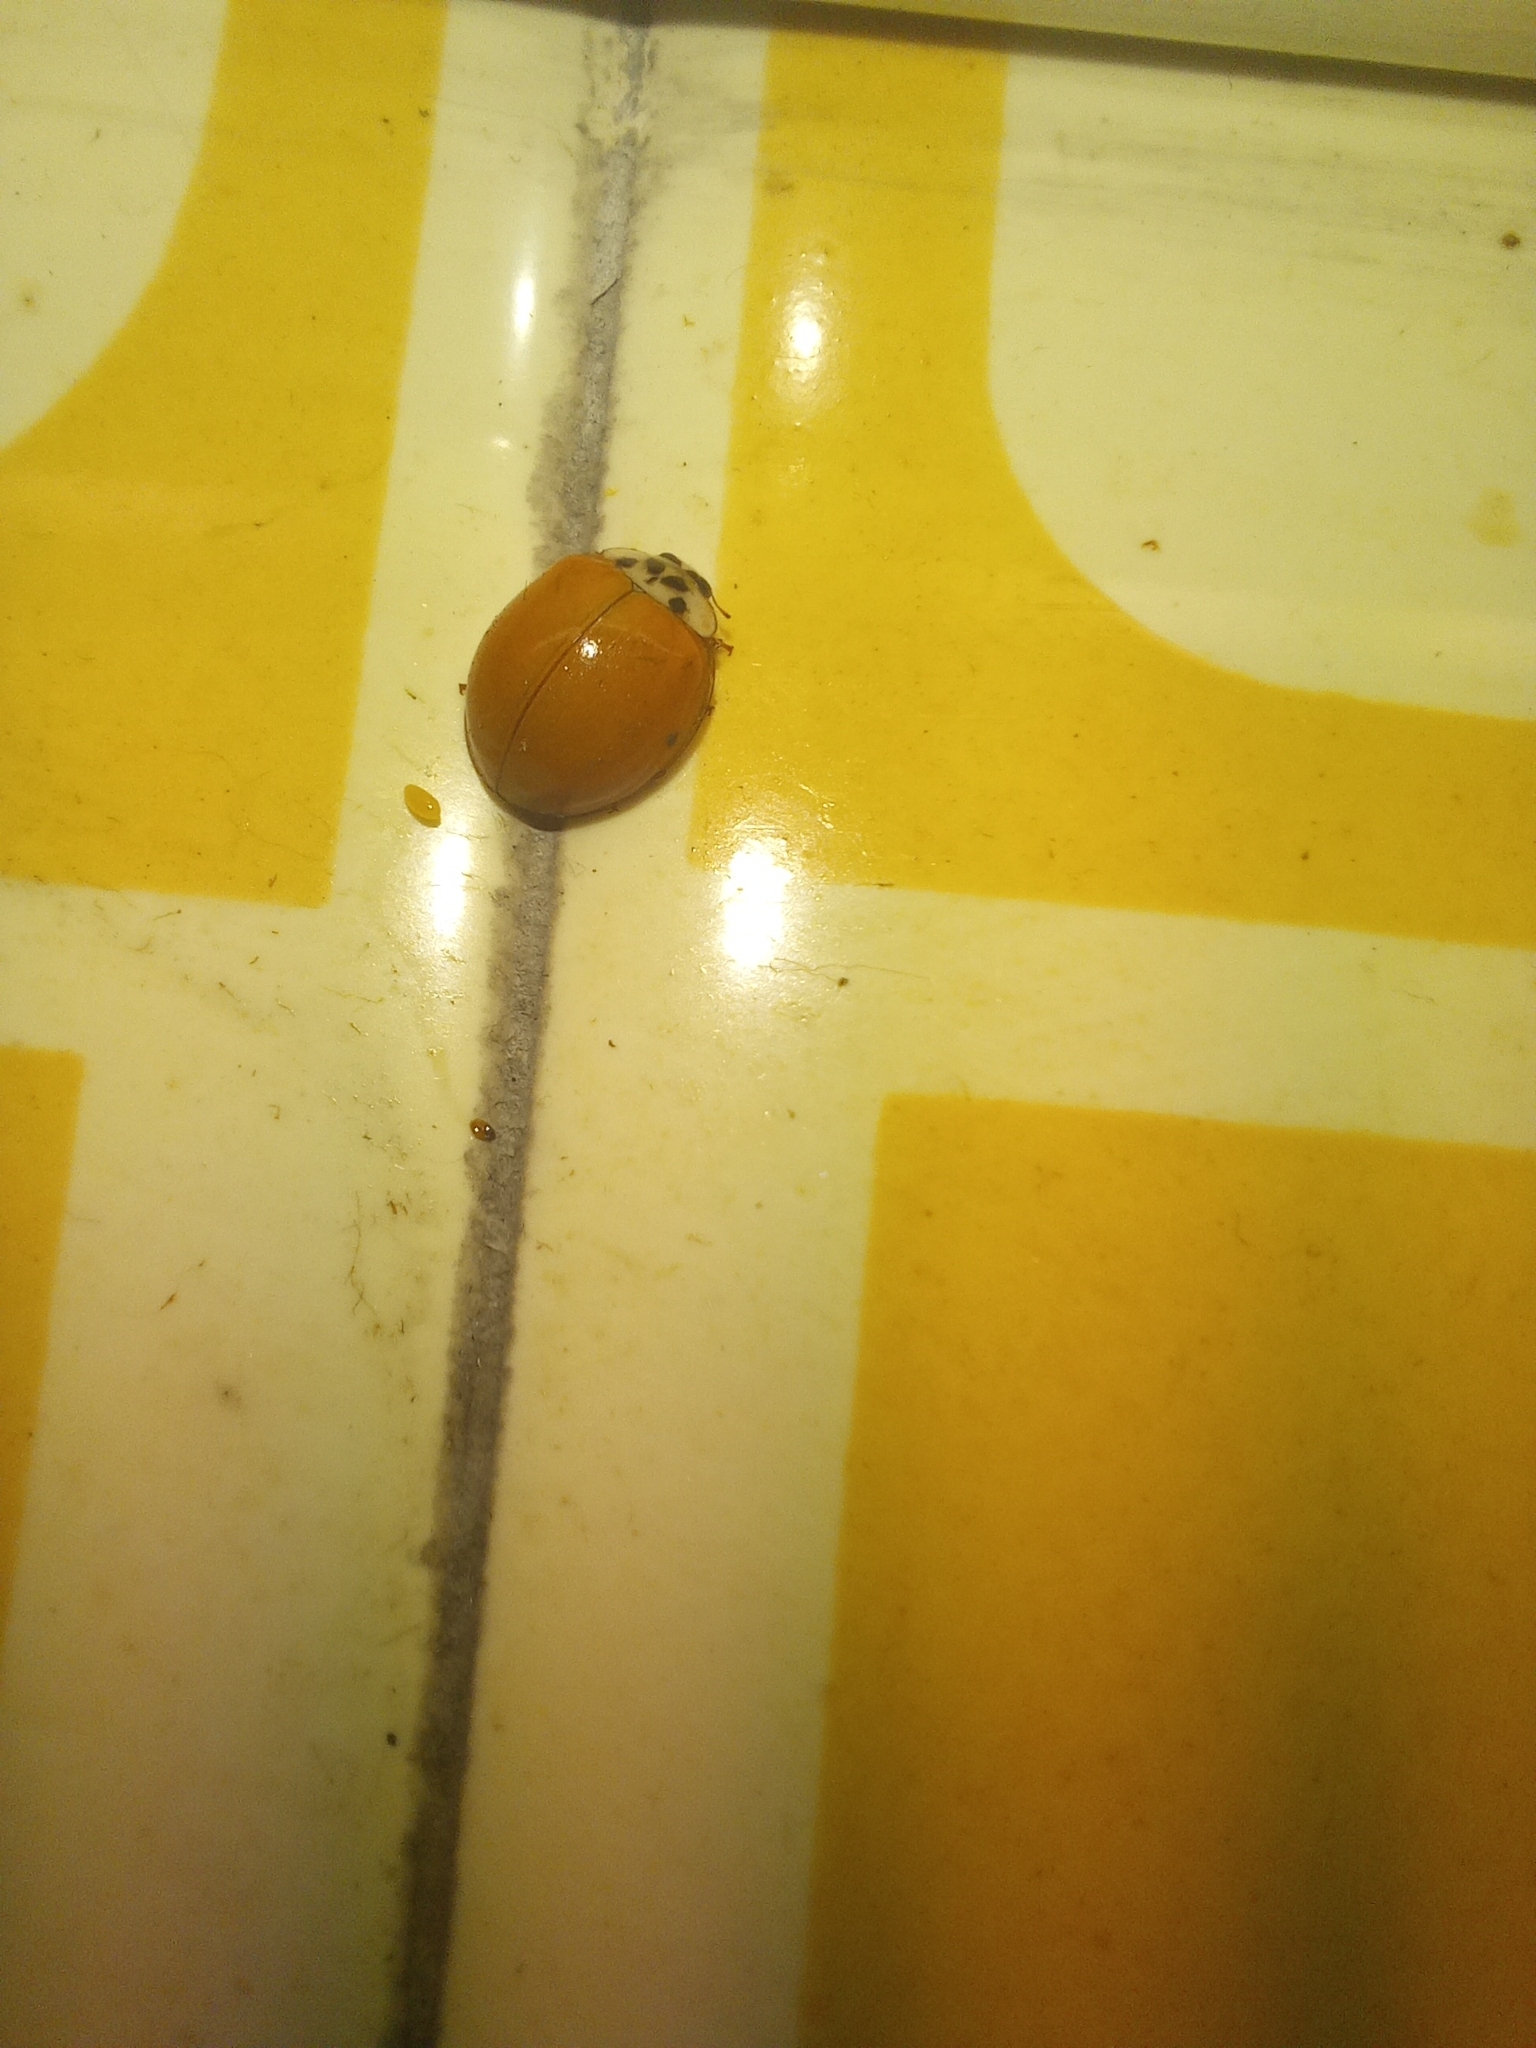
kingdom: Animalia
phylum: Arthropoda
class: Insecta
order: Coleoptera
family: Coccinellidae
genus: Harmonia
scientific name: Harmonia axyridis
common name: Harlequin ladybird
